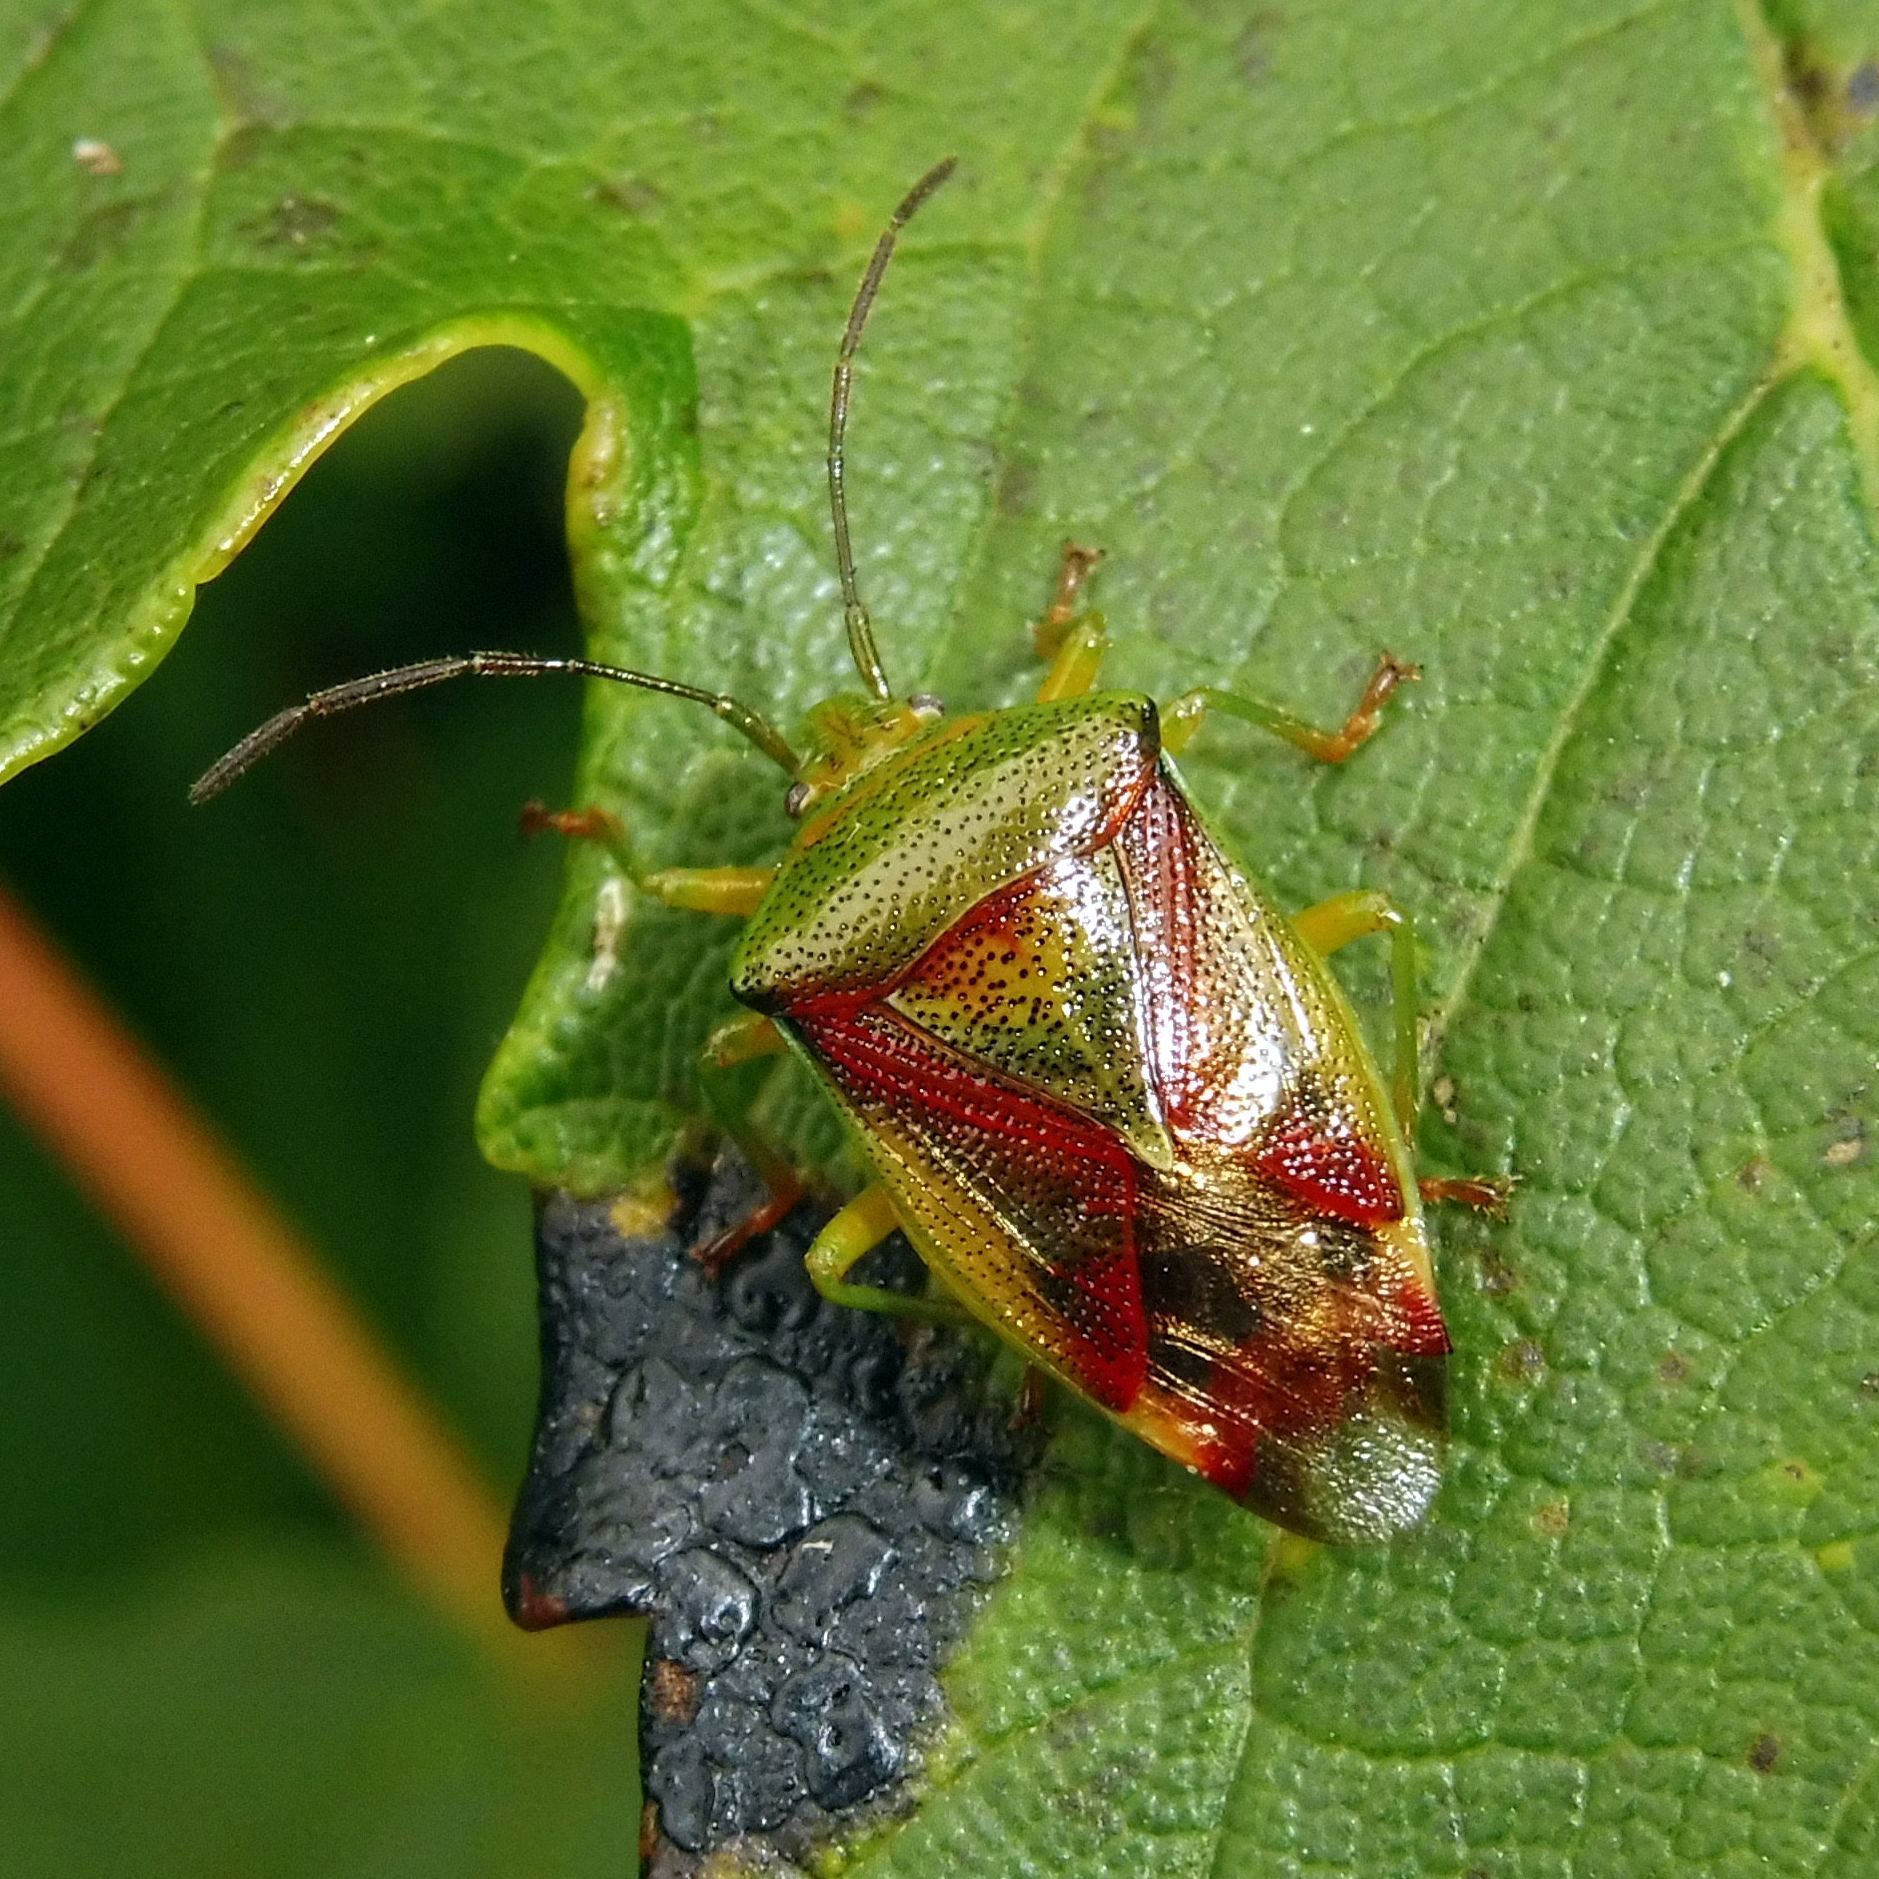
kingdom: Animalia
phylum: Arthropoda
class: Insecta
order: Hemiptera
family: Acanthosomatidae
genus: Elasmostethus
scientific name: Elasmostethus interstinctus
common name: Birch shieldbug
